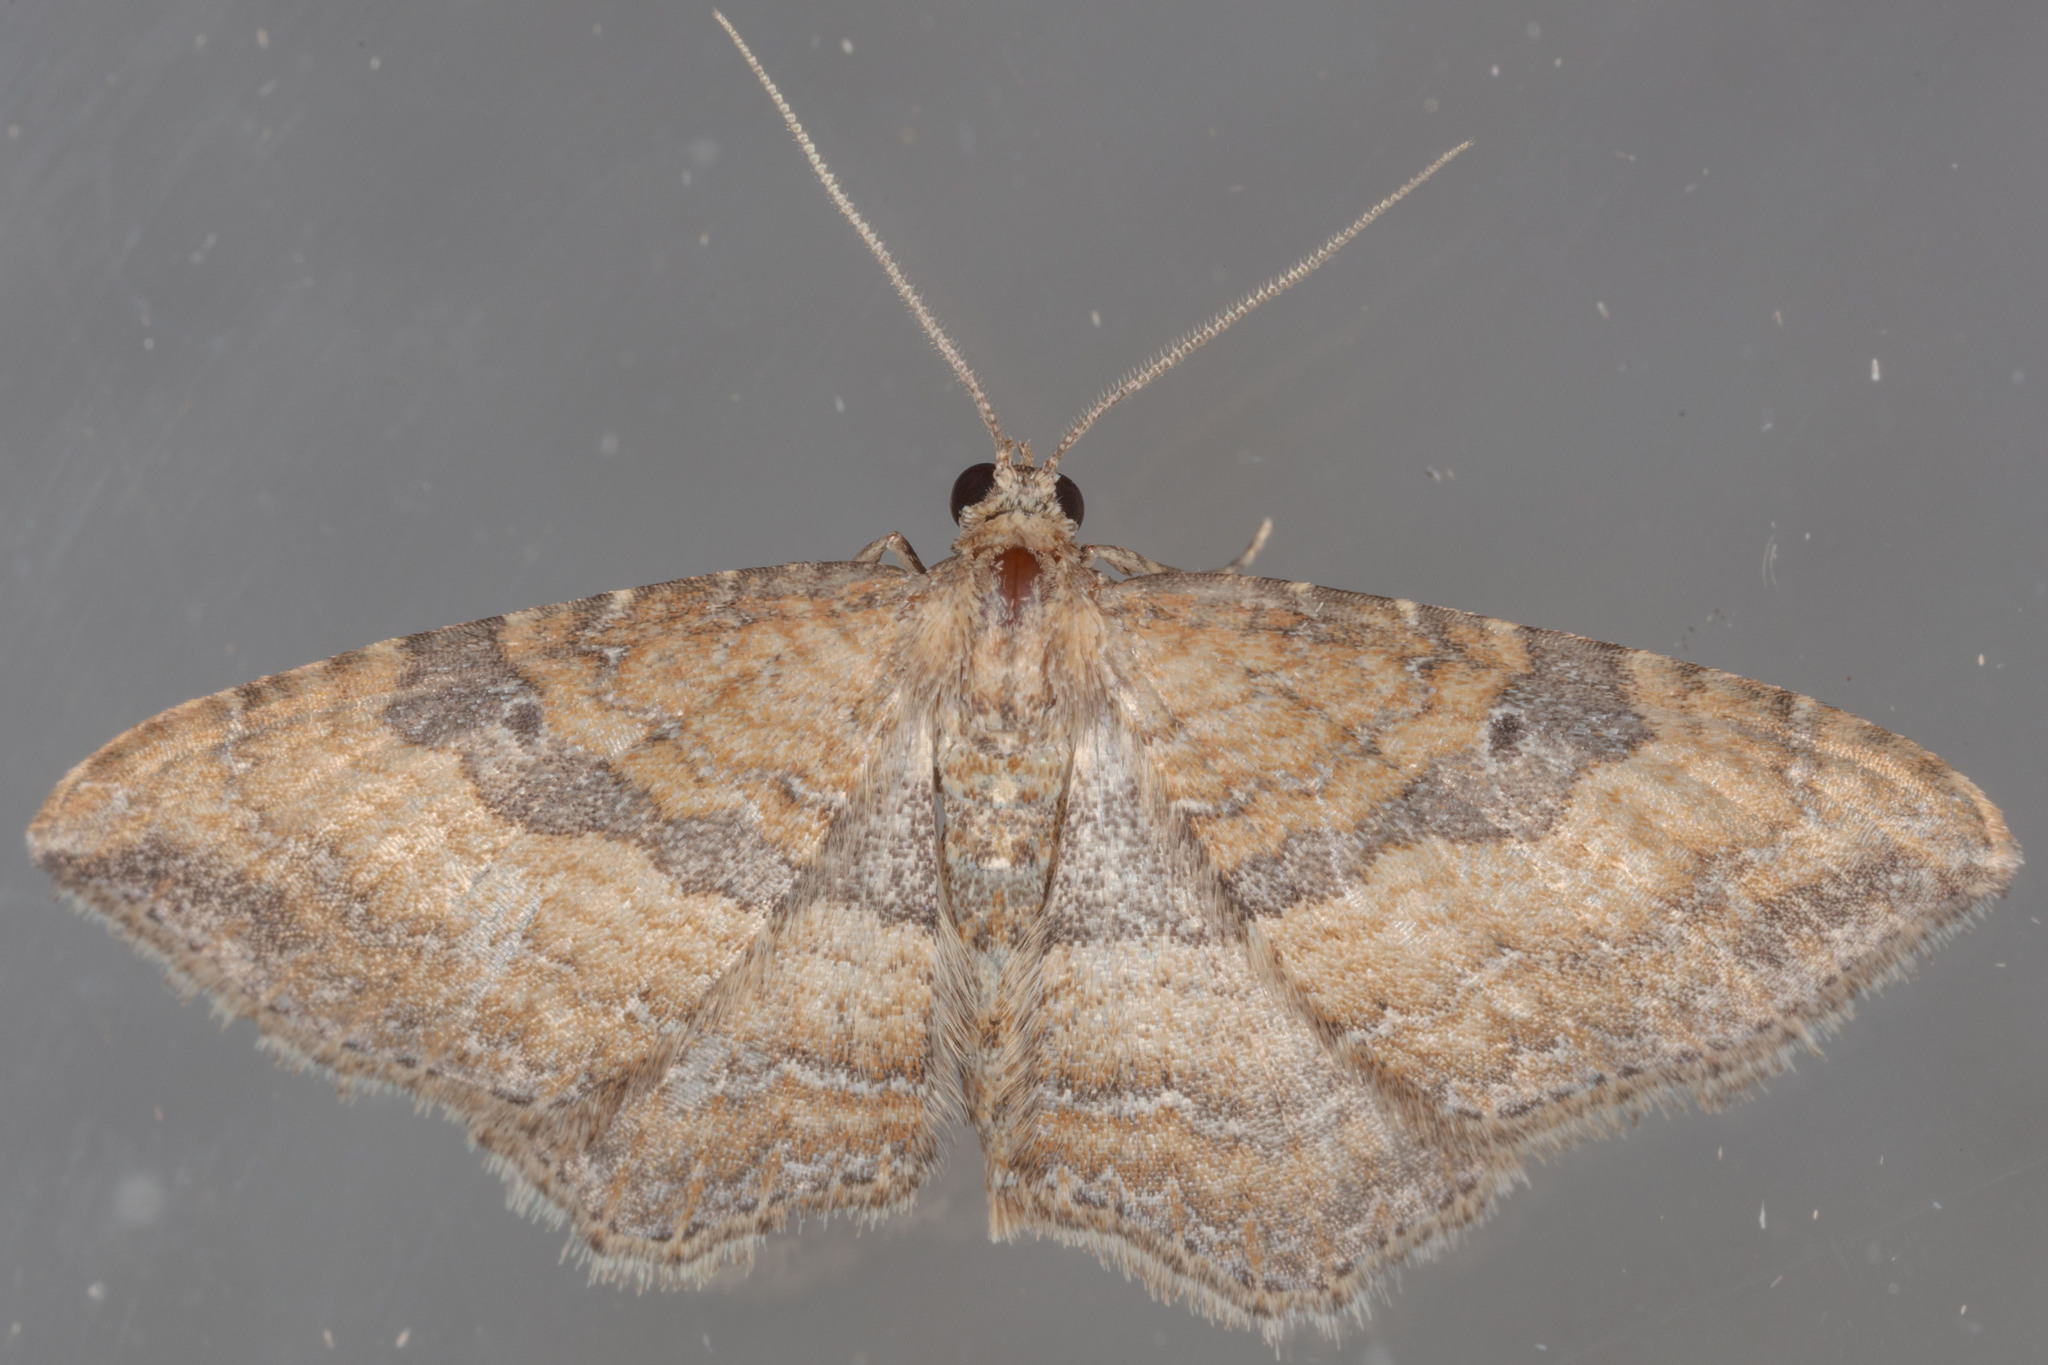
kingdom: Animalia
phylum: Arthropoda
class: Insecta
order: Lepidoptera
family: Geometridae
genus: Orthonama
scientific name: Orthonama obstipata
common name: The gem
